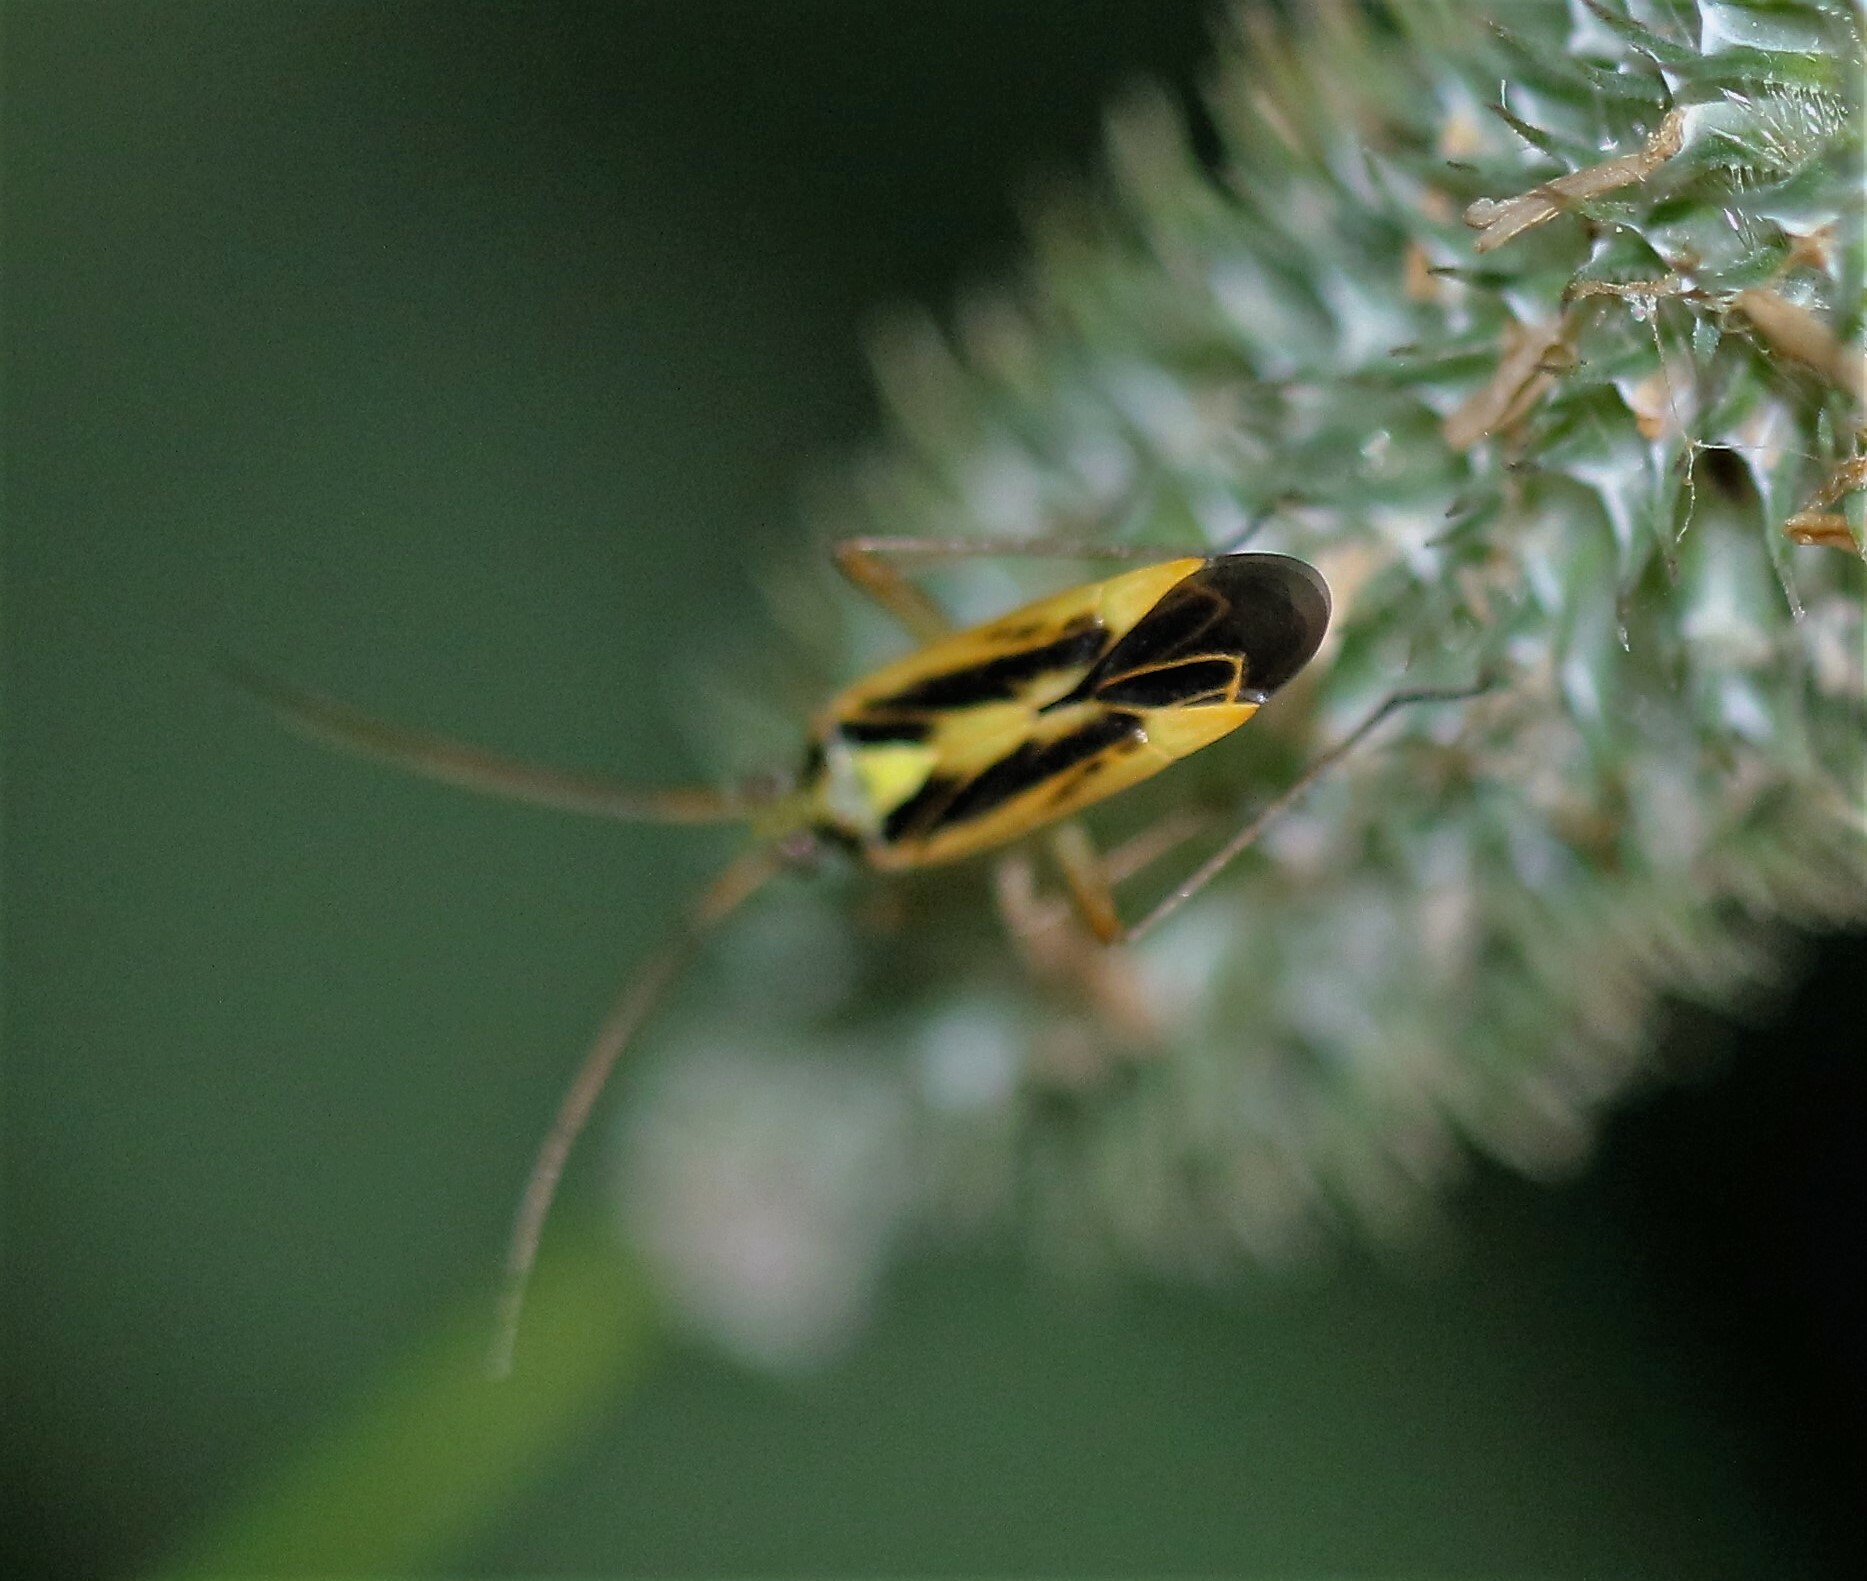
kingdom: Animalia
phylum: Arthropoda
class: Insecta
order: Hemiptera
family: Miridae
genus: Stenotus
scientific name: Stenotus binotatus
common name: Plant bug
